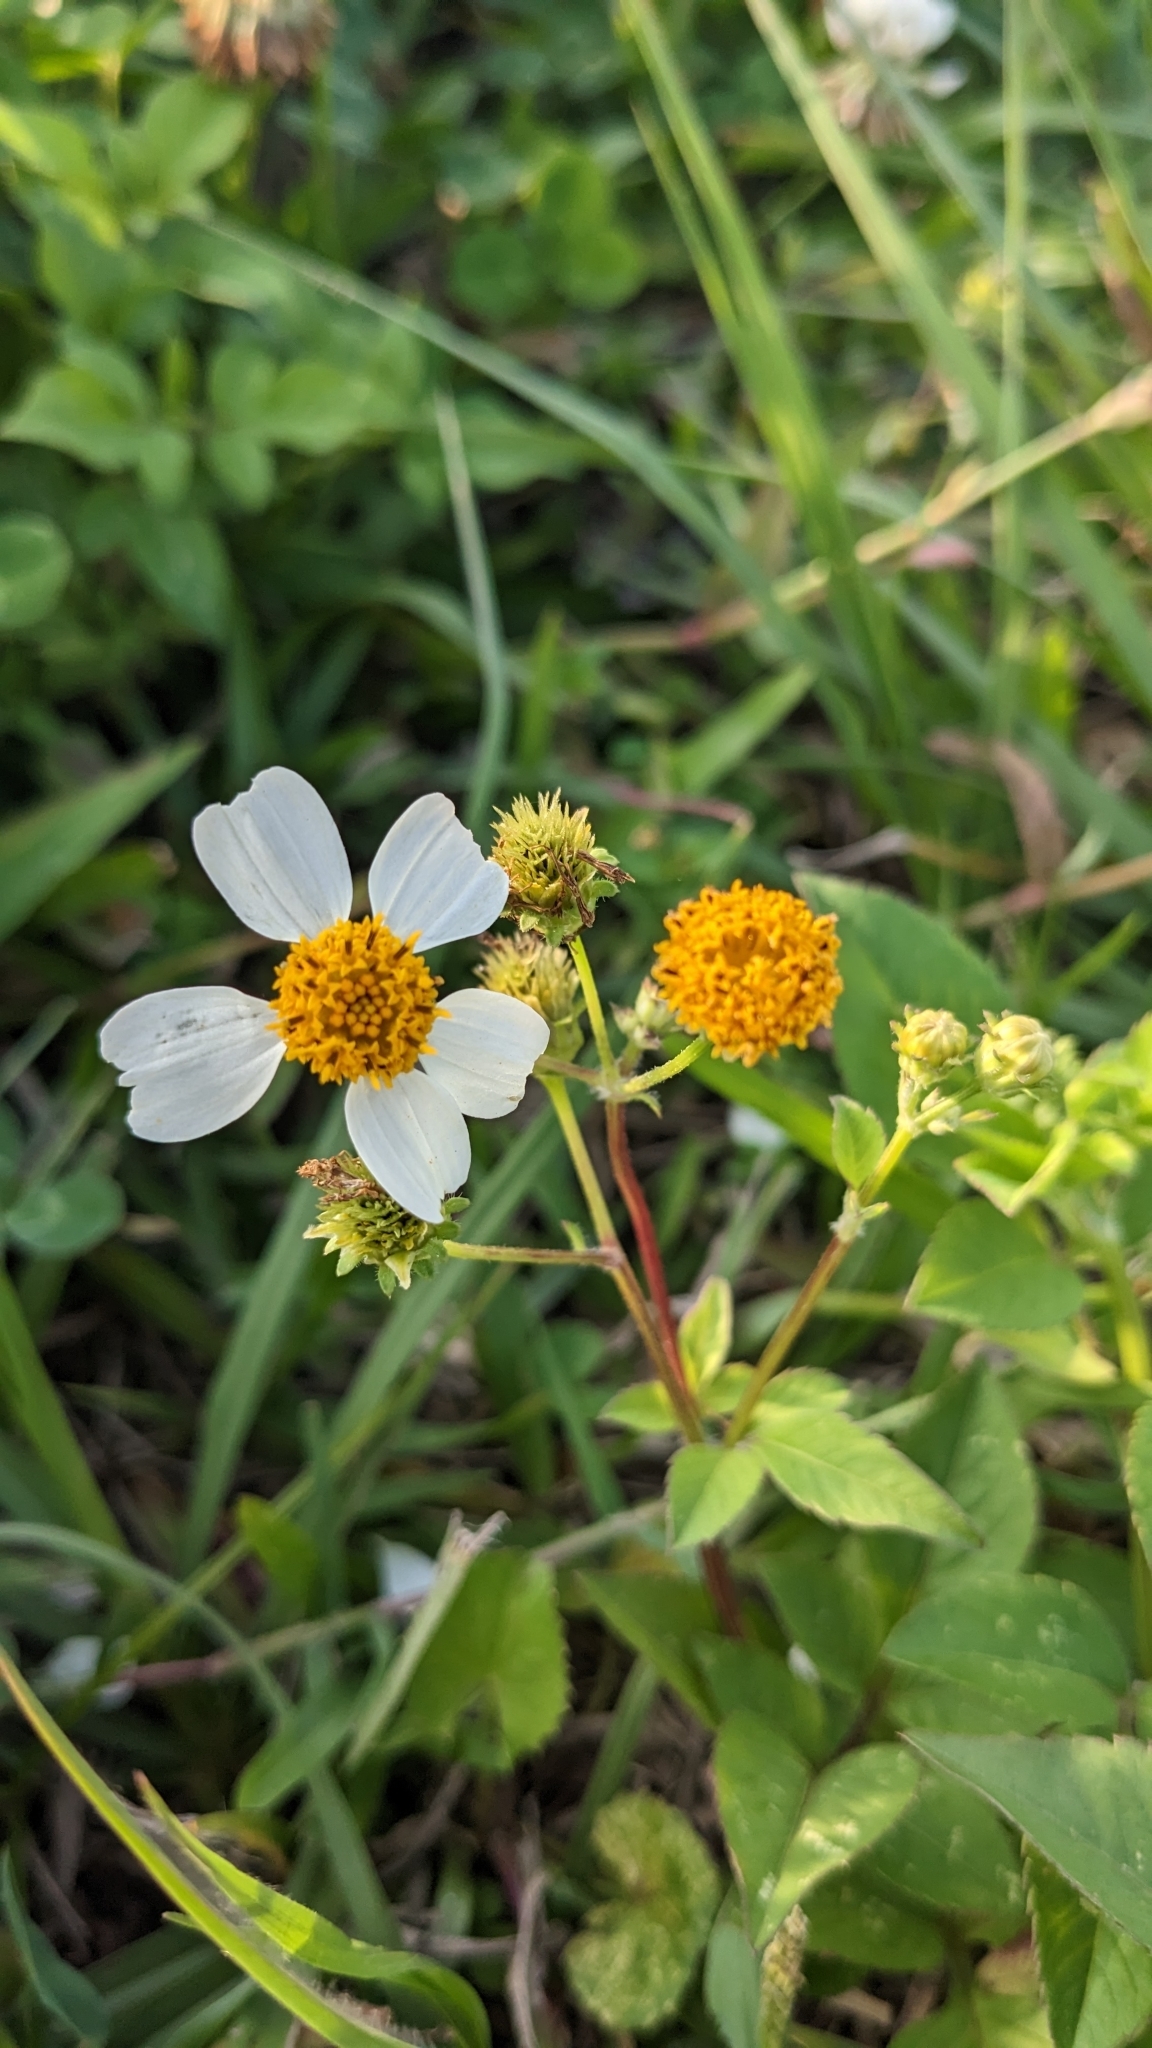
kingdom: Plantae
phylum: Tracheophyta
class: Magnoliopsida
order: Asterales
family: Asteraceae
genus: Bidens
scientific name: Bidens alba
